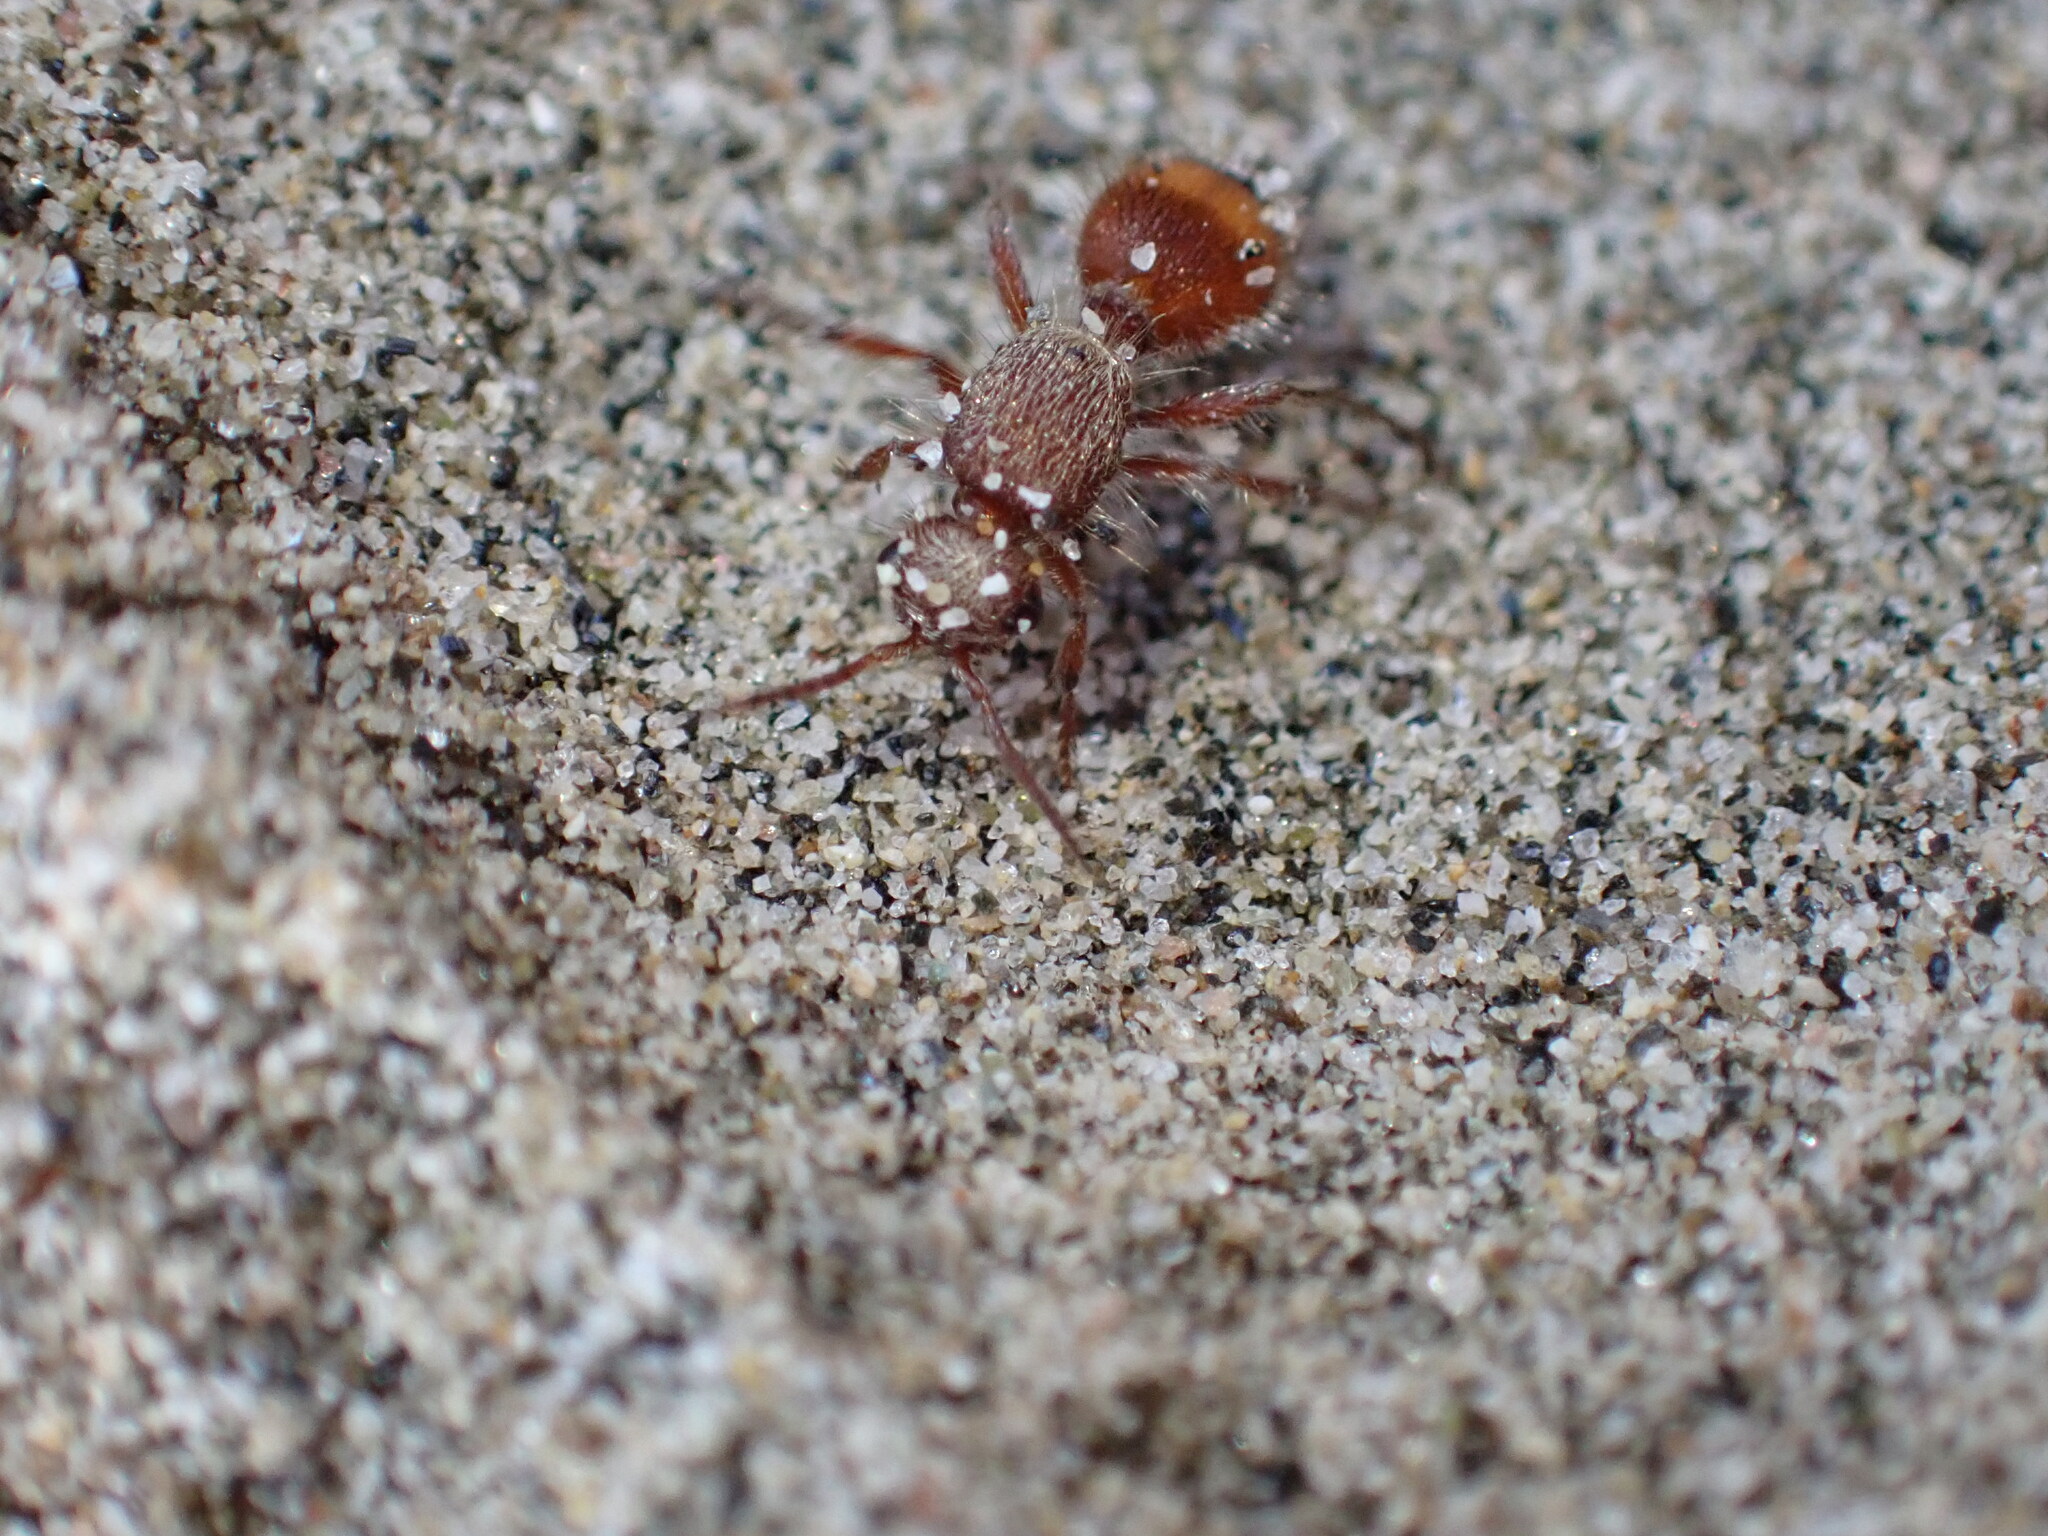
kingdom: Animalia
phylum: Arthropoda
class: Insecta
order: Hymenoptera
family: Mutillidae
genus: Dasymutilla
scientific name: Dasymutilla monticola
